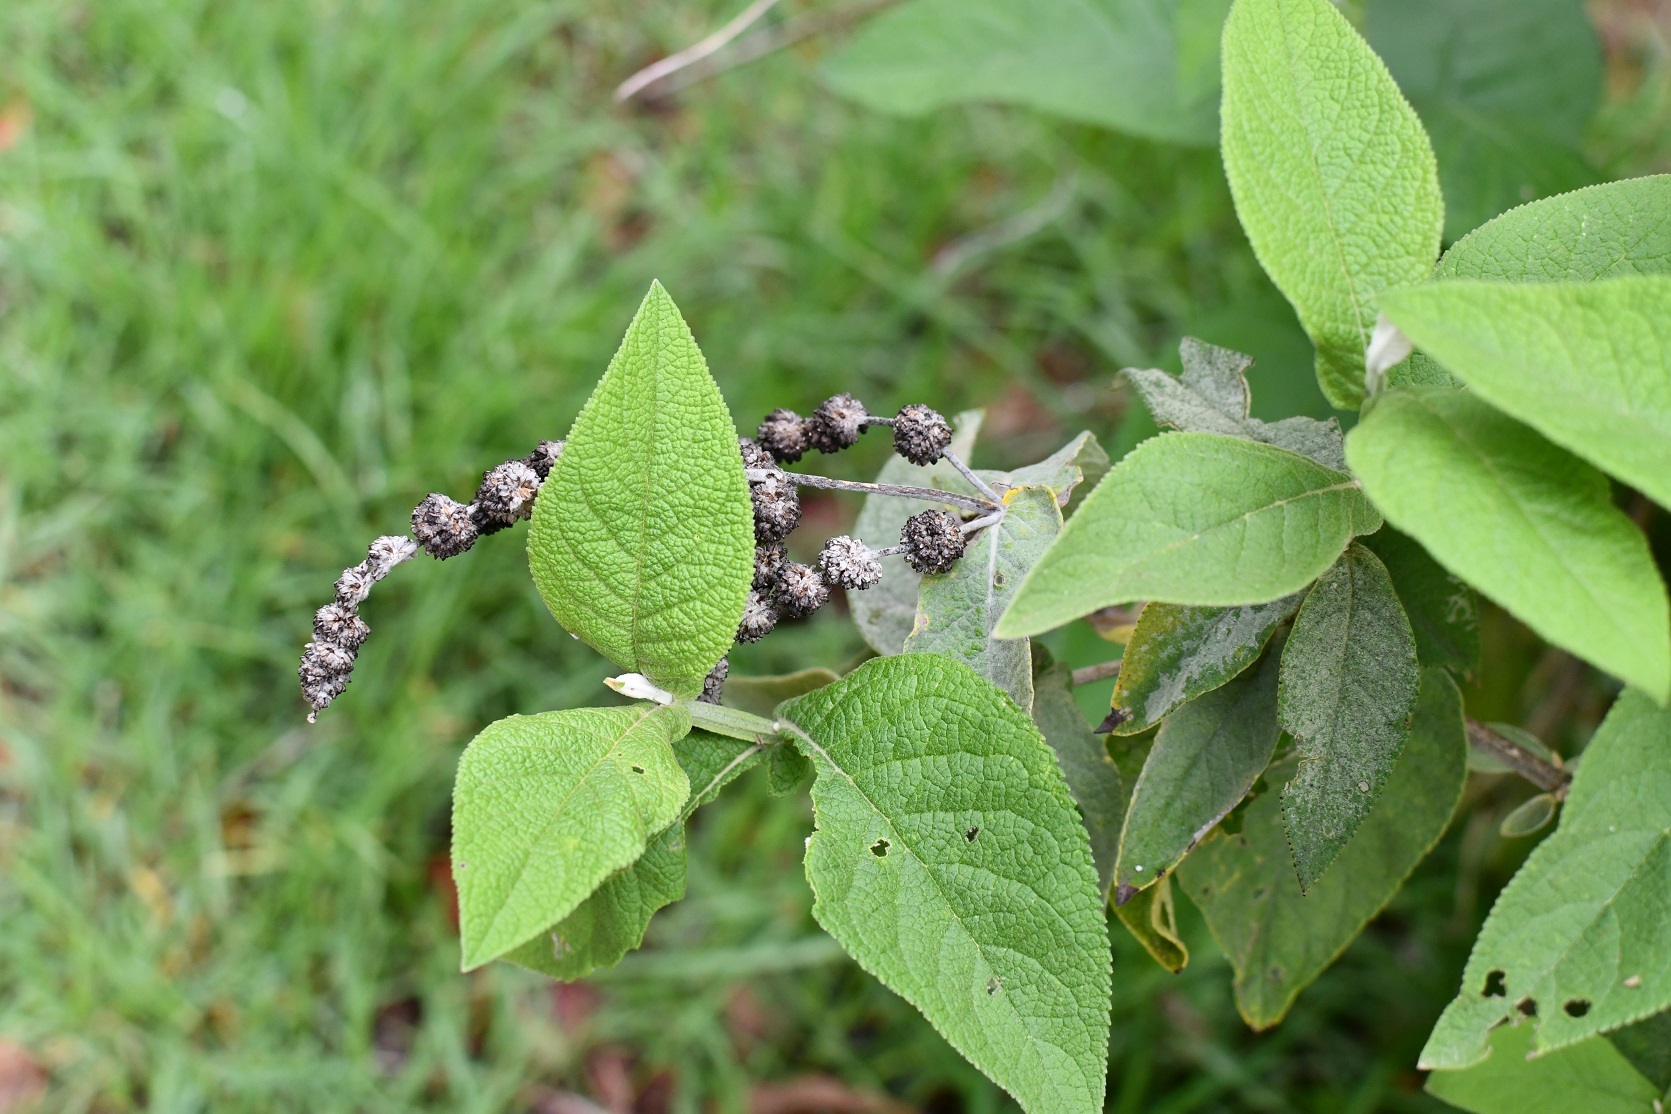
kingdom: Plantae
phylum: Tracheophyta
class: Magnoliopsida
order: Lamiales
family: Scrophulariaceae
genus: Buddleja
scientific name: Buddleja crotonoides
